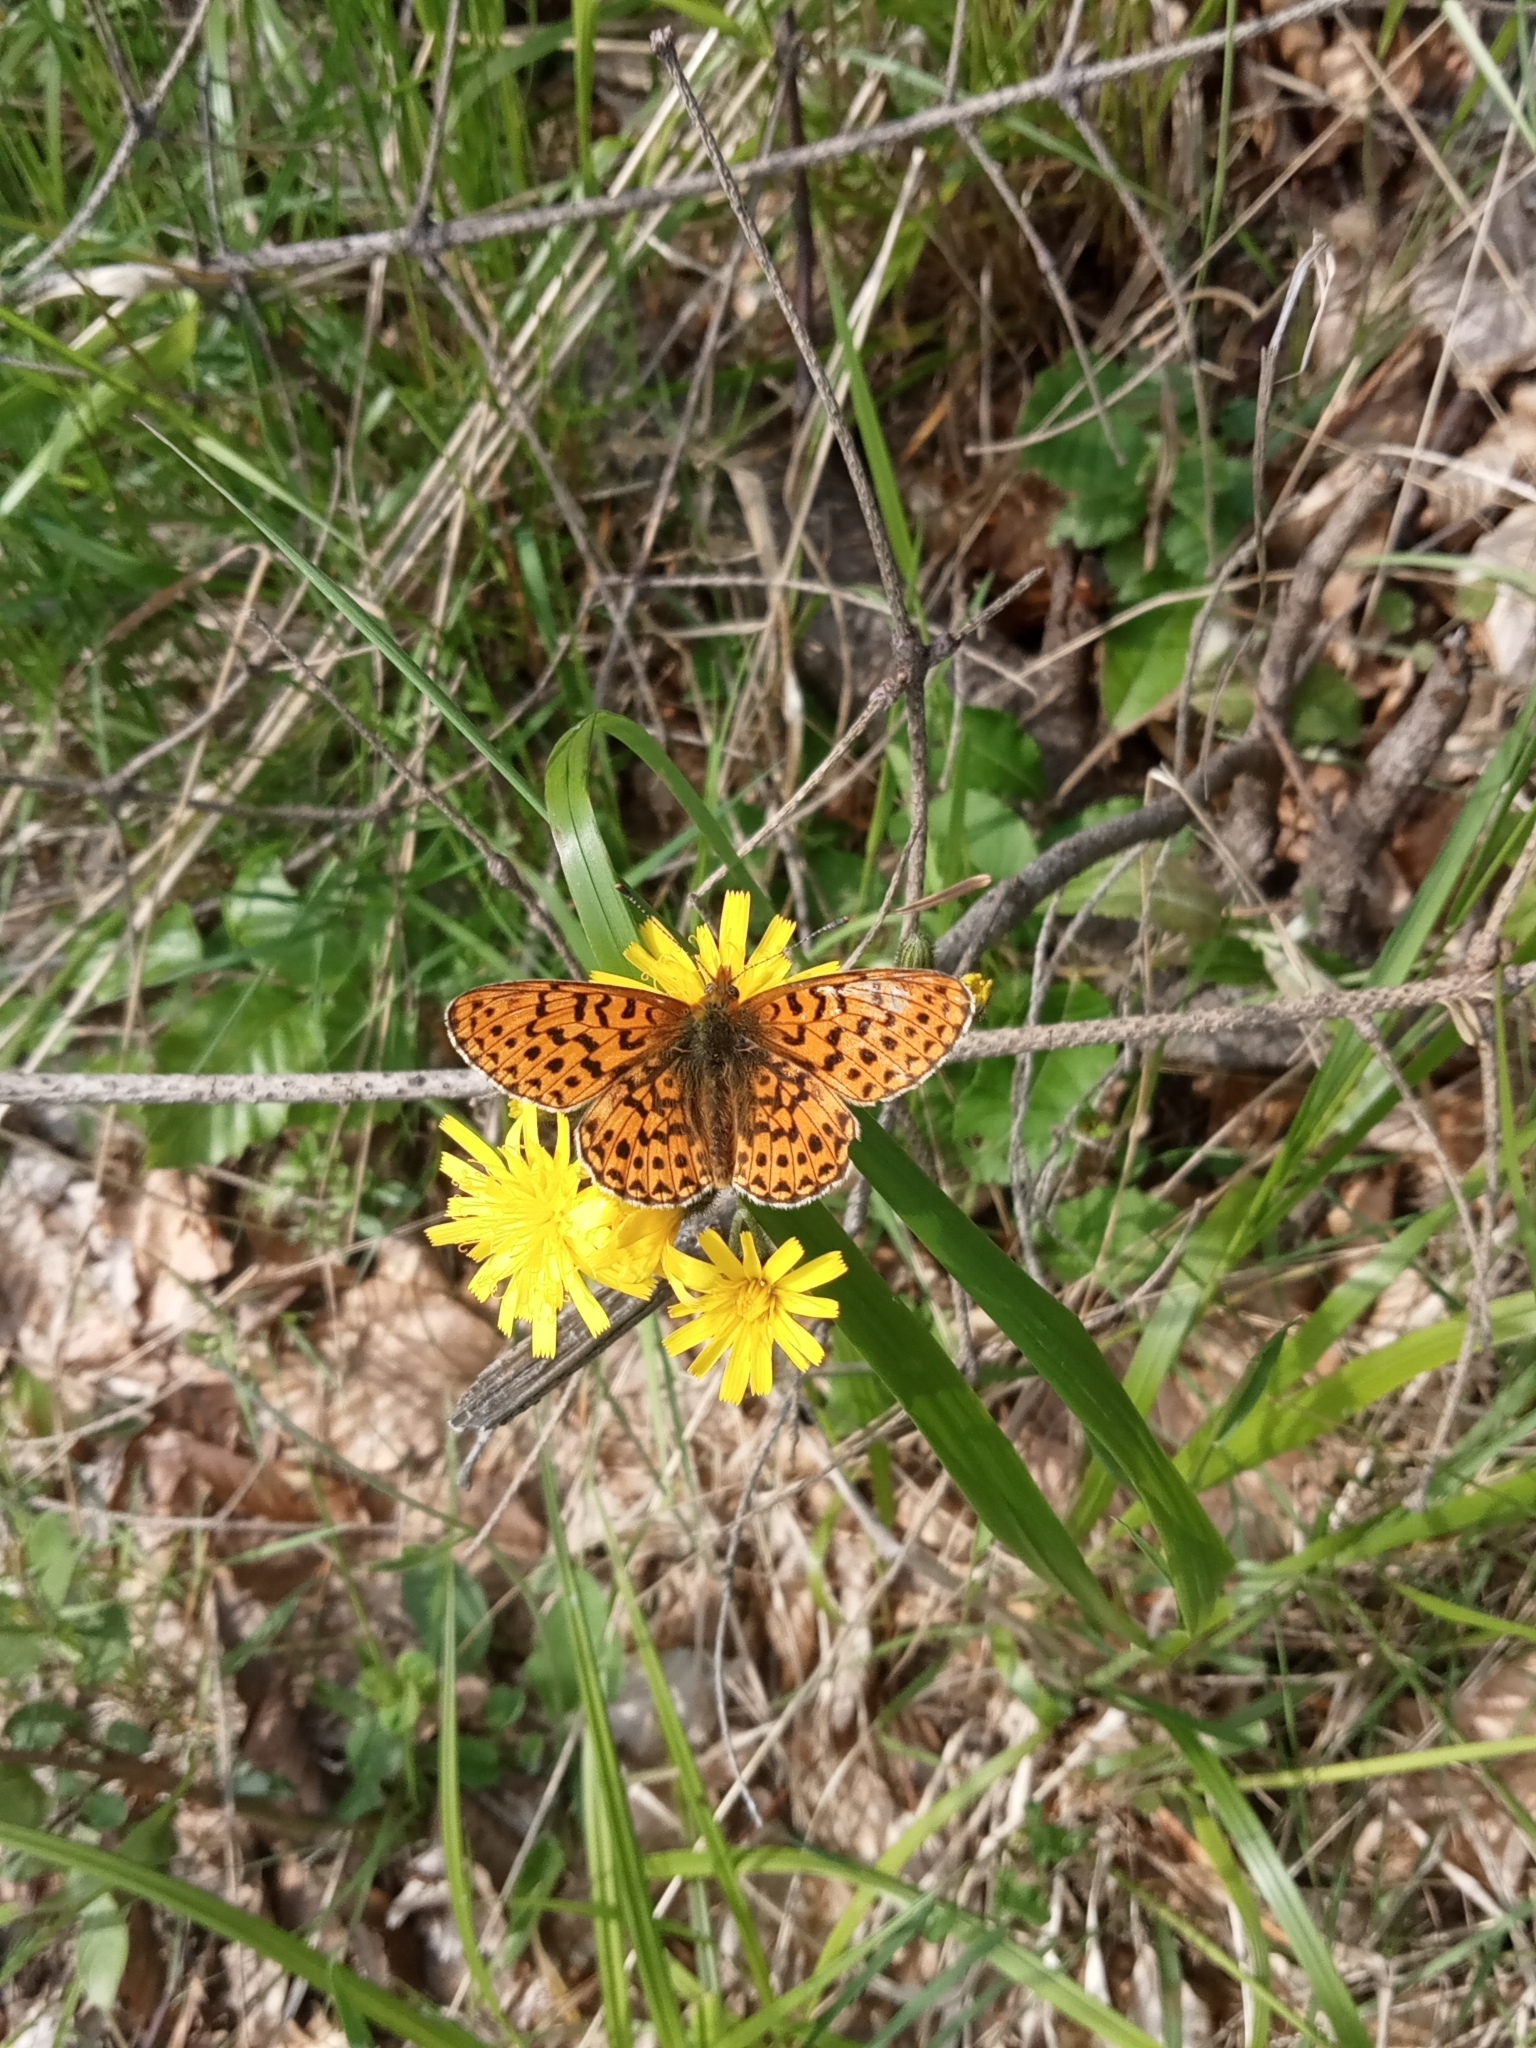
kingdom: Animalia
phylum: Arthropoda
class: Insecta
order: Lepidoptera
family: Nymphalidae
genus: Clossiana
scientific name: Clossiana euphrosyne
